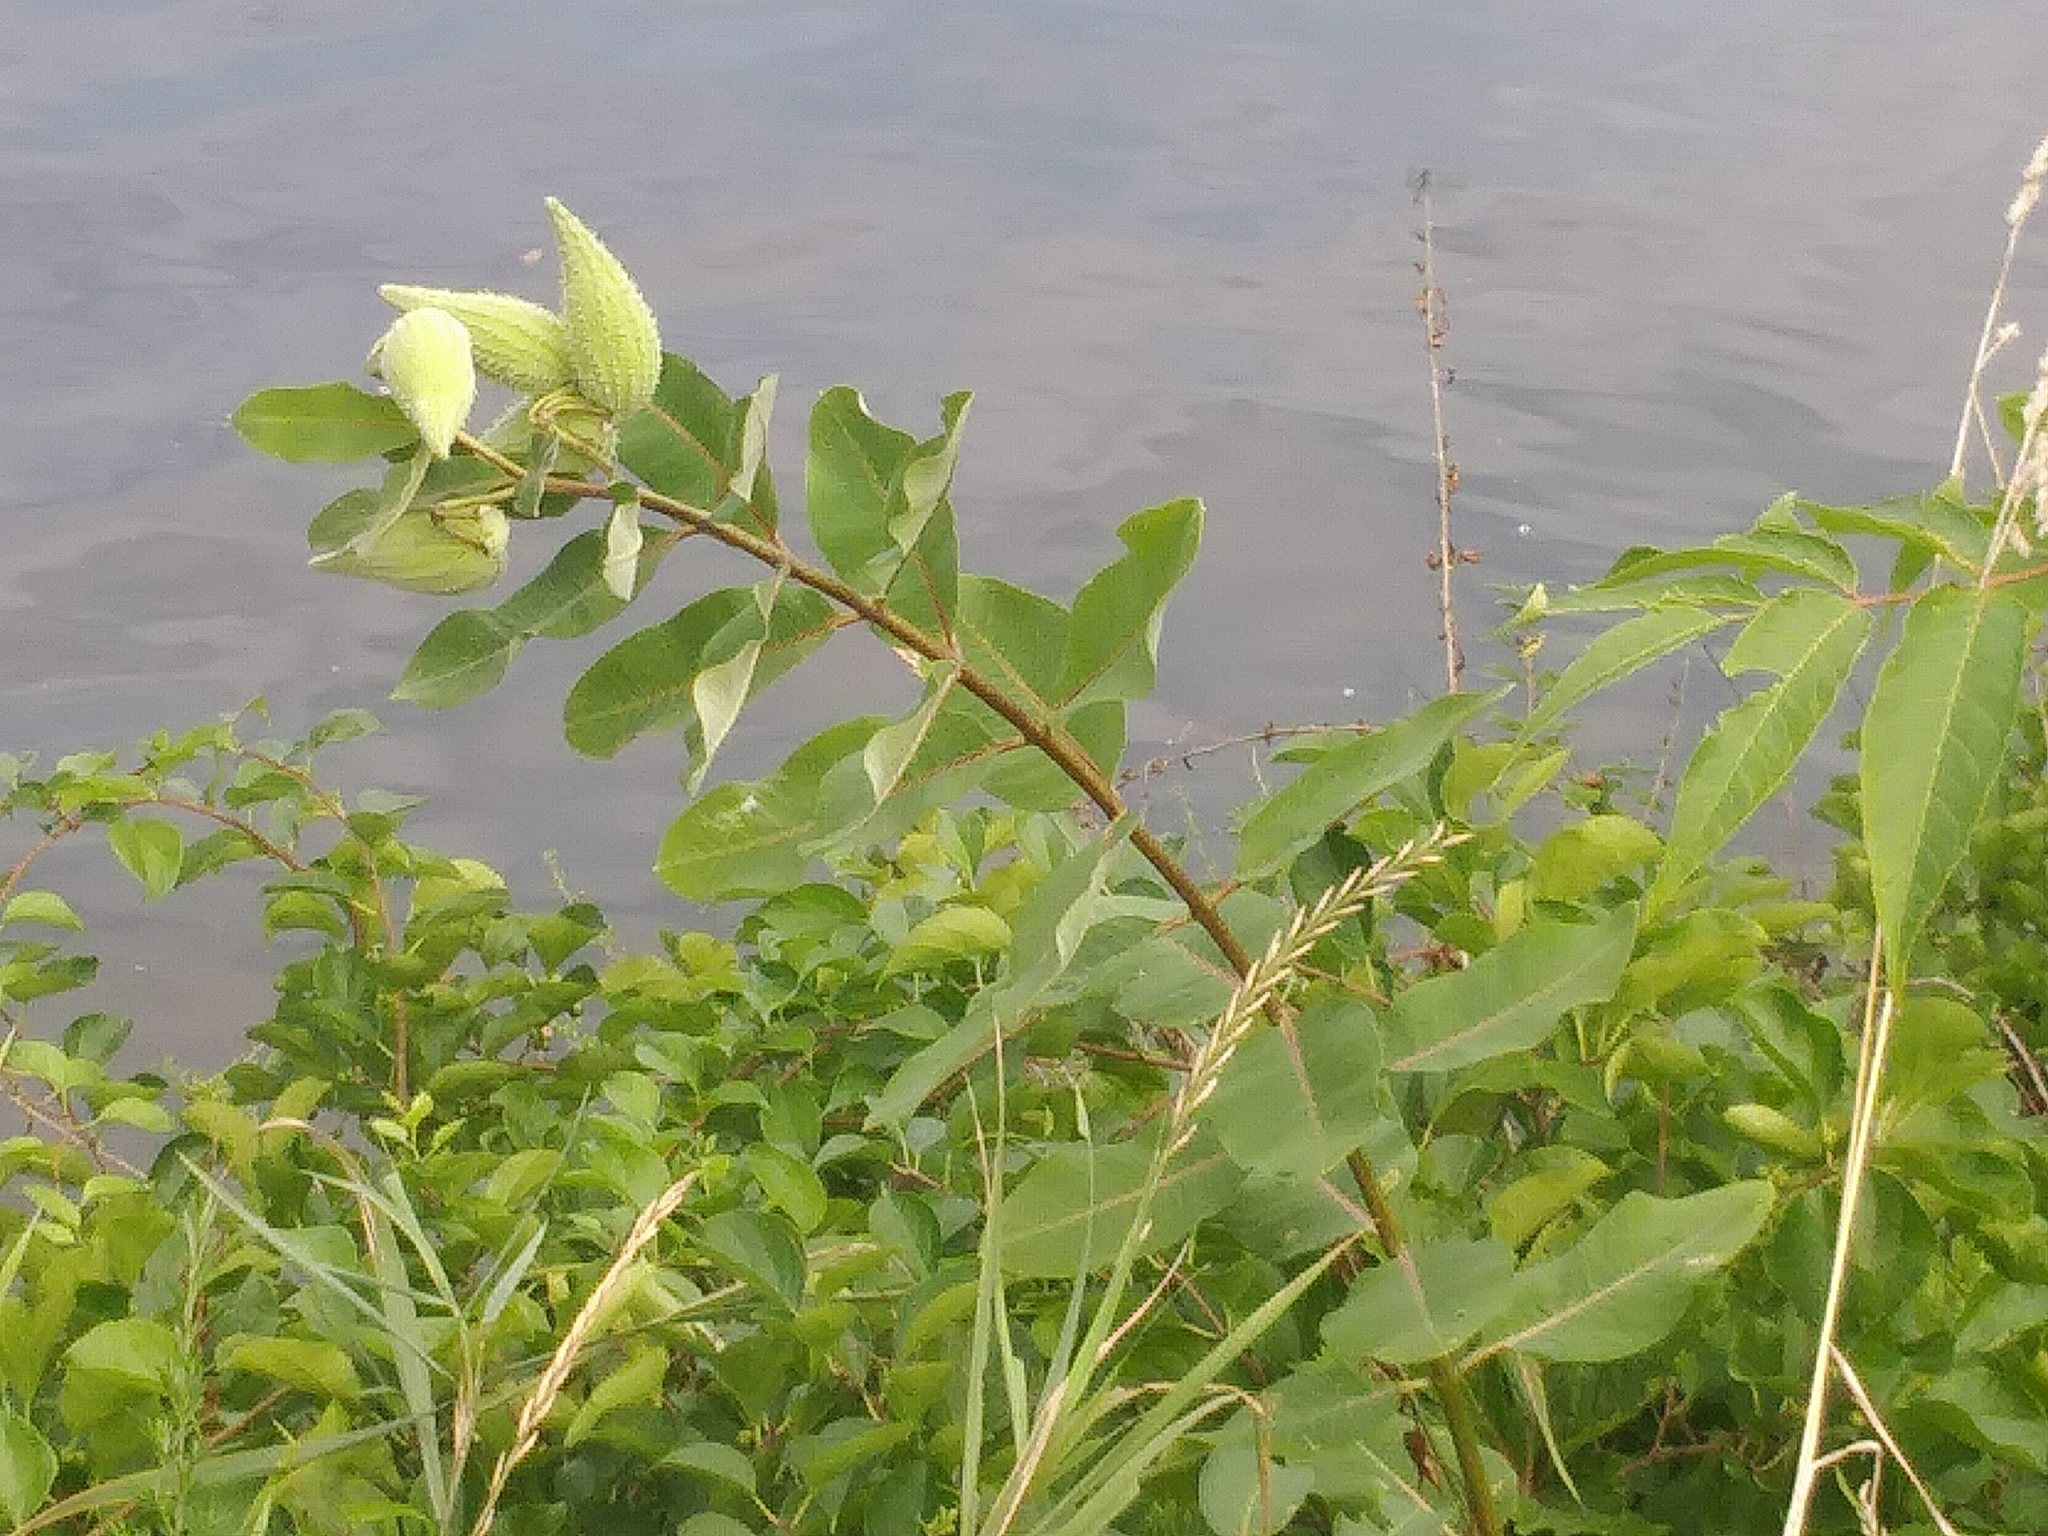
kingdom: Plantae
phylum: Tracheophyta
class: Magnoliopsida
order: Gentianales
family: Apocynaceae
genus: Asclepias
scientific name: Asclepias syriaca
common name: Common milkweed
